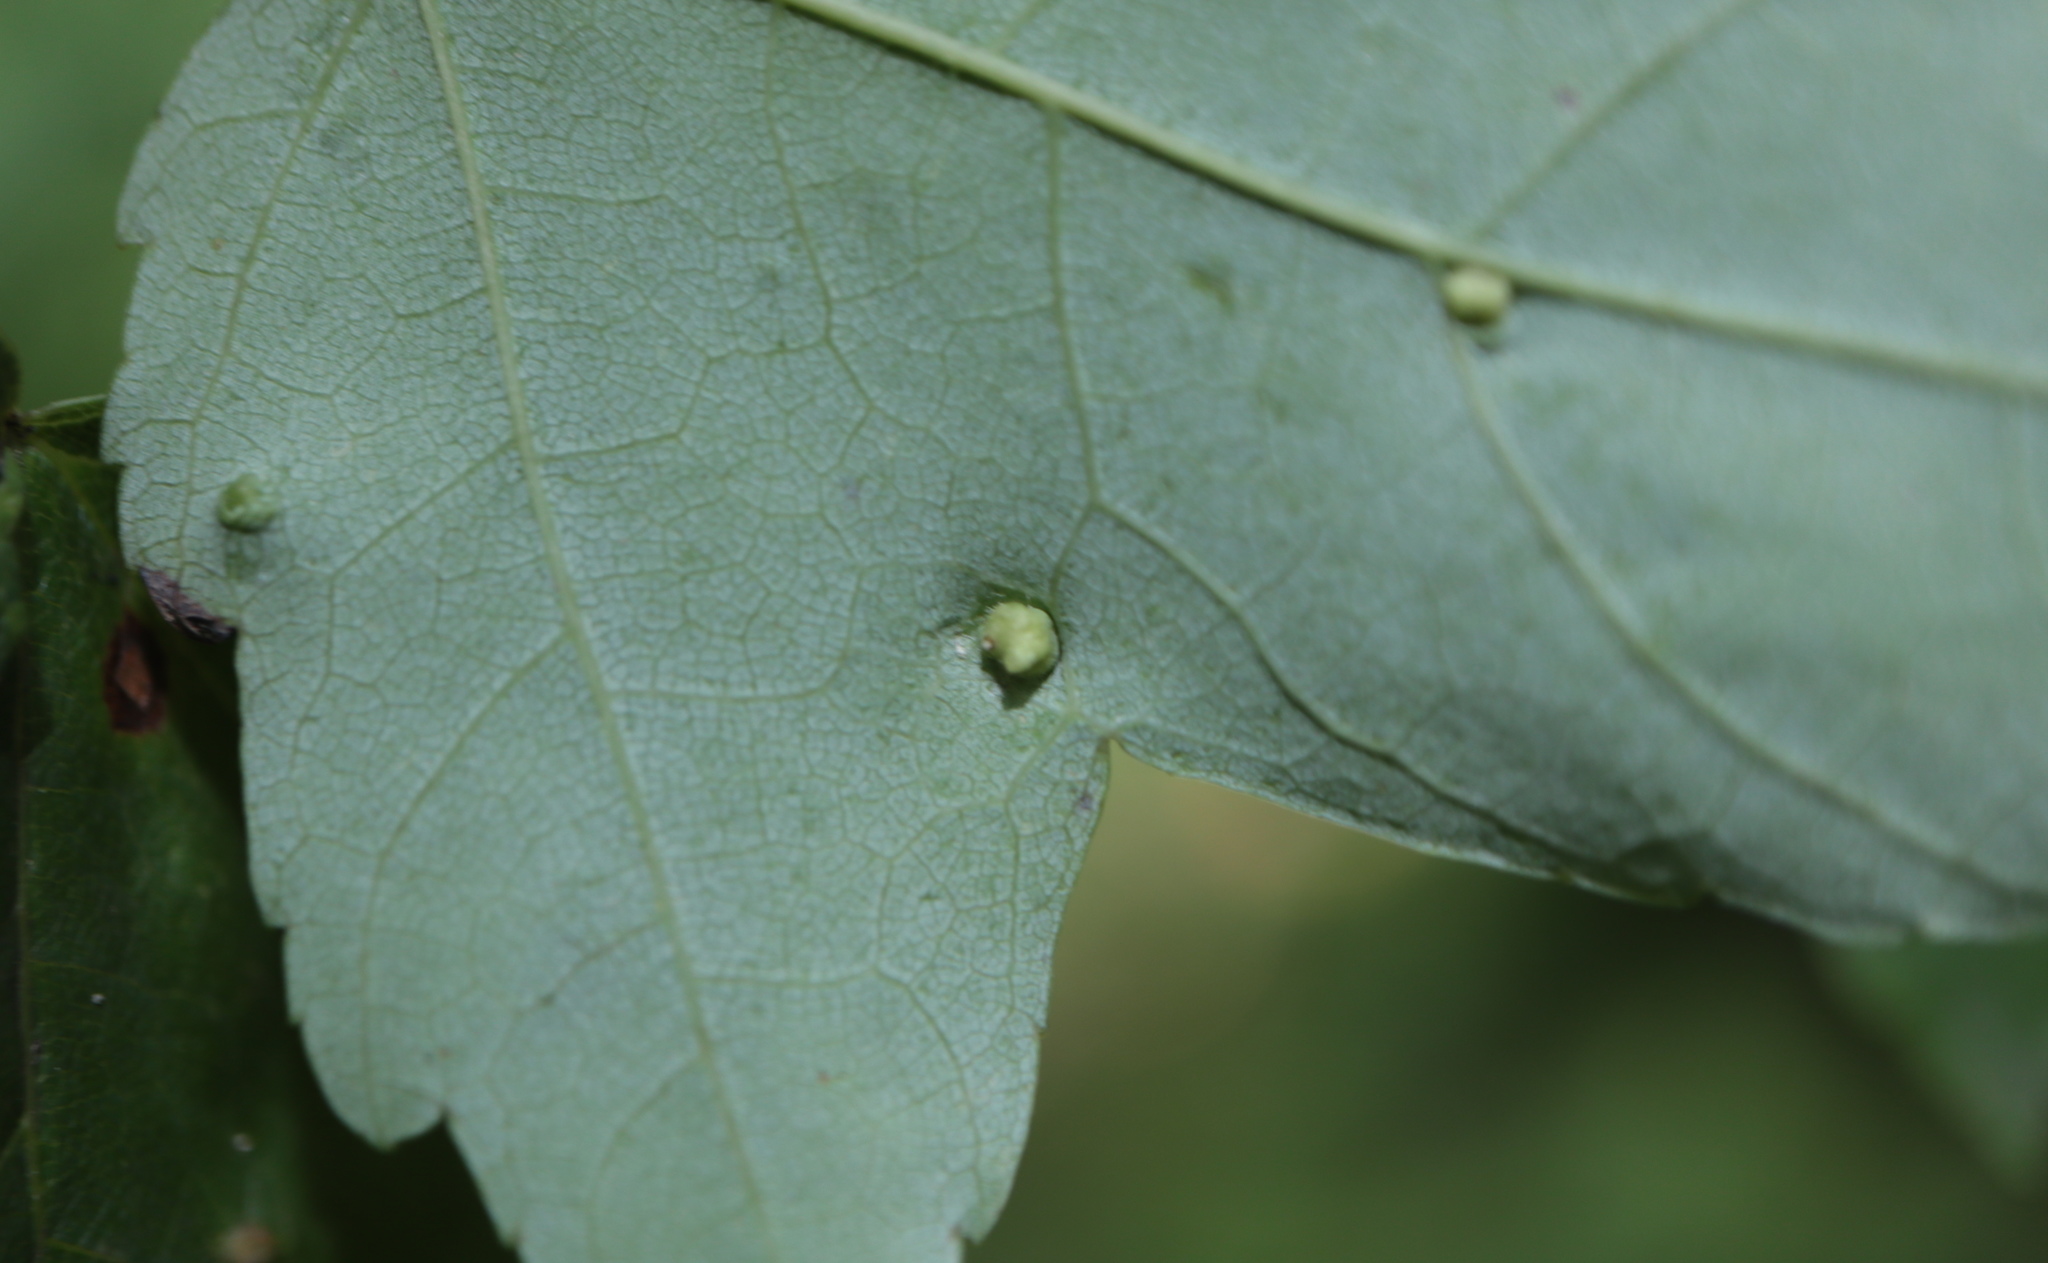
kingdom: Animalia
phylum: Arthropoda
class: Arachnida
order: Trombidiformes
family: Eriophyidae
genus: Vasates
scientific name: Vasates quadripedes
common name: Maple bladder gall mite
